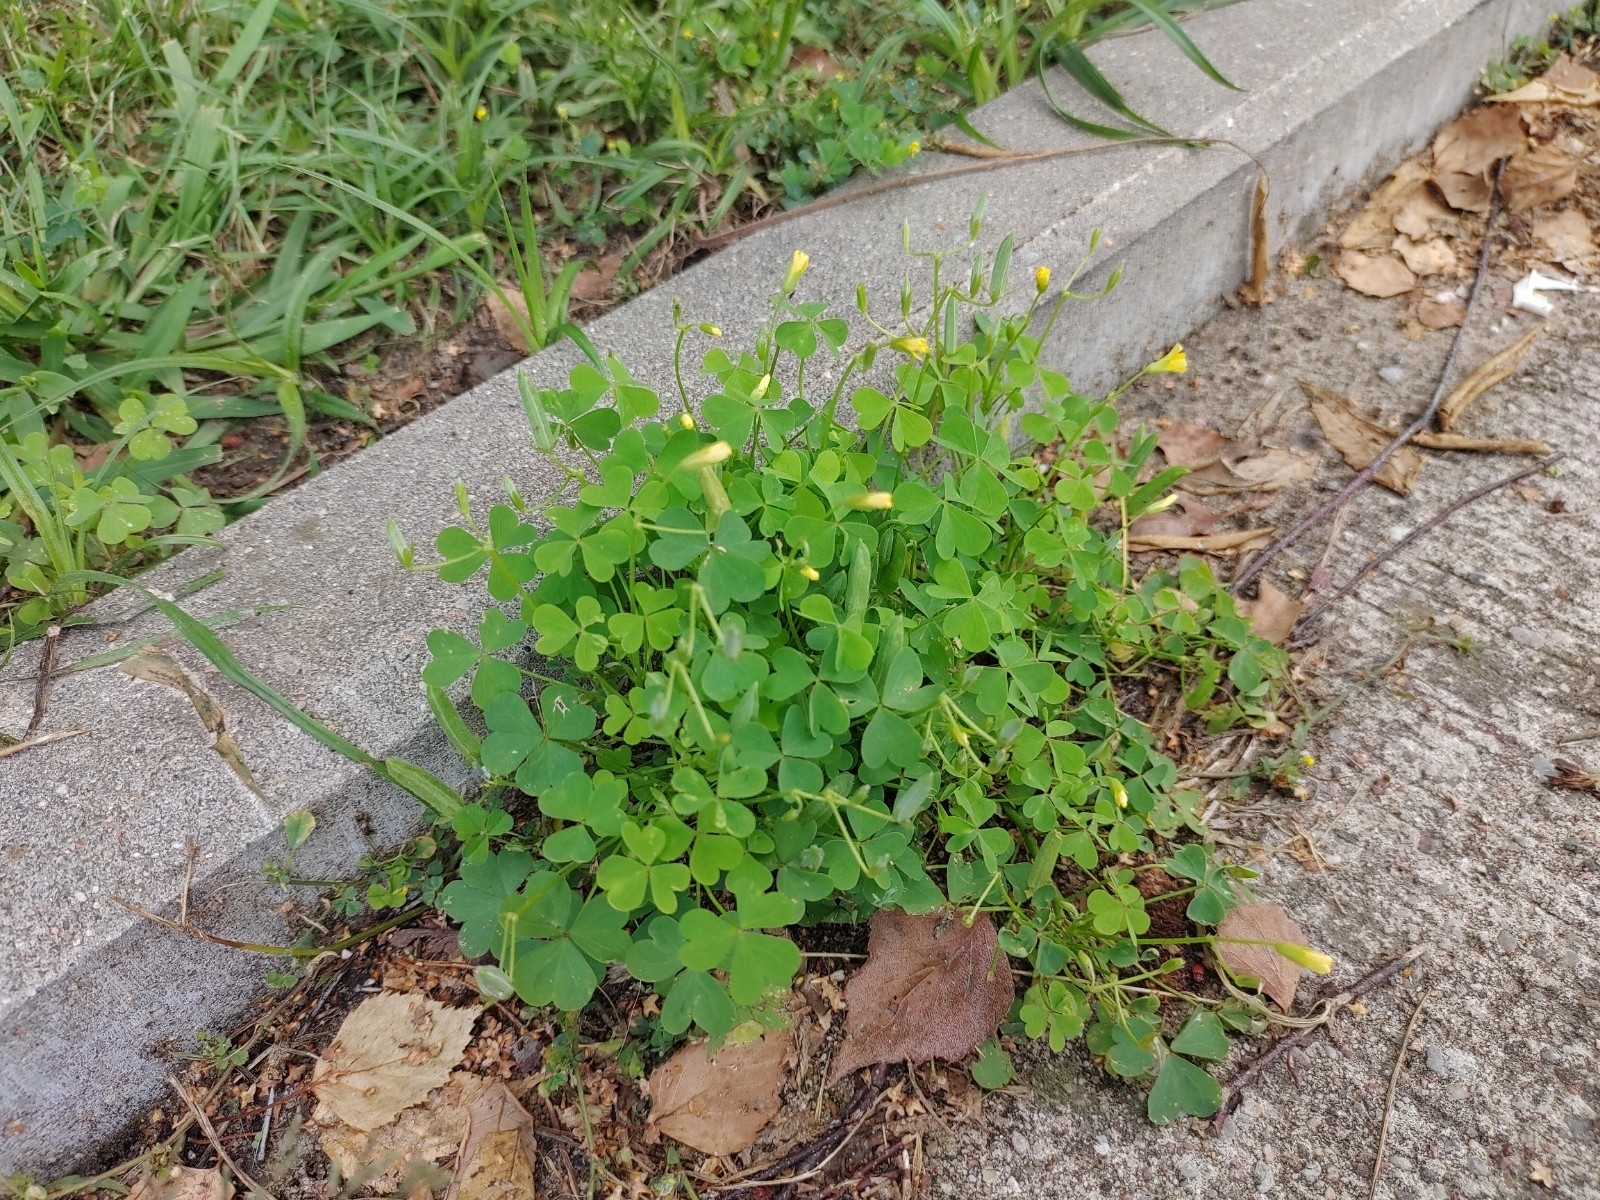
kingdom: Plantae
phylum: Tracheophyta
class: Magnoliopsida
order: Oxalidales
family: Oxalidaceae
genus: Oxalis
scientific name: Oxalis
